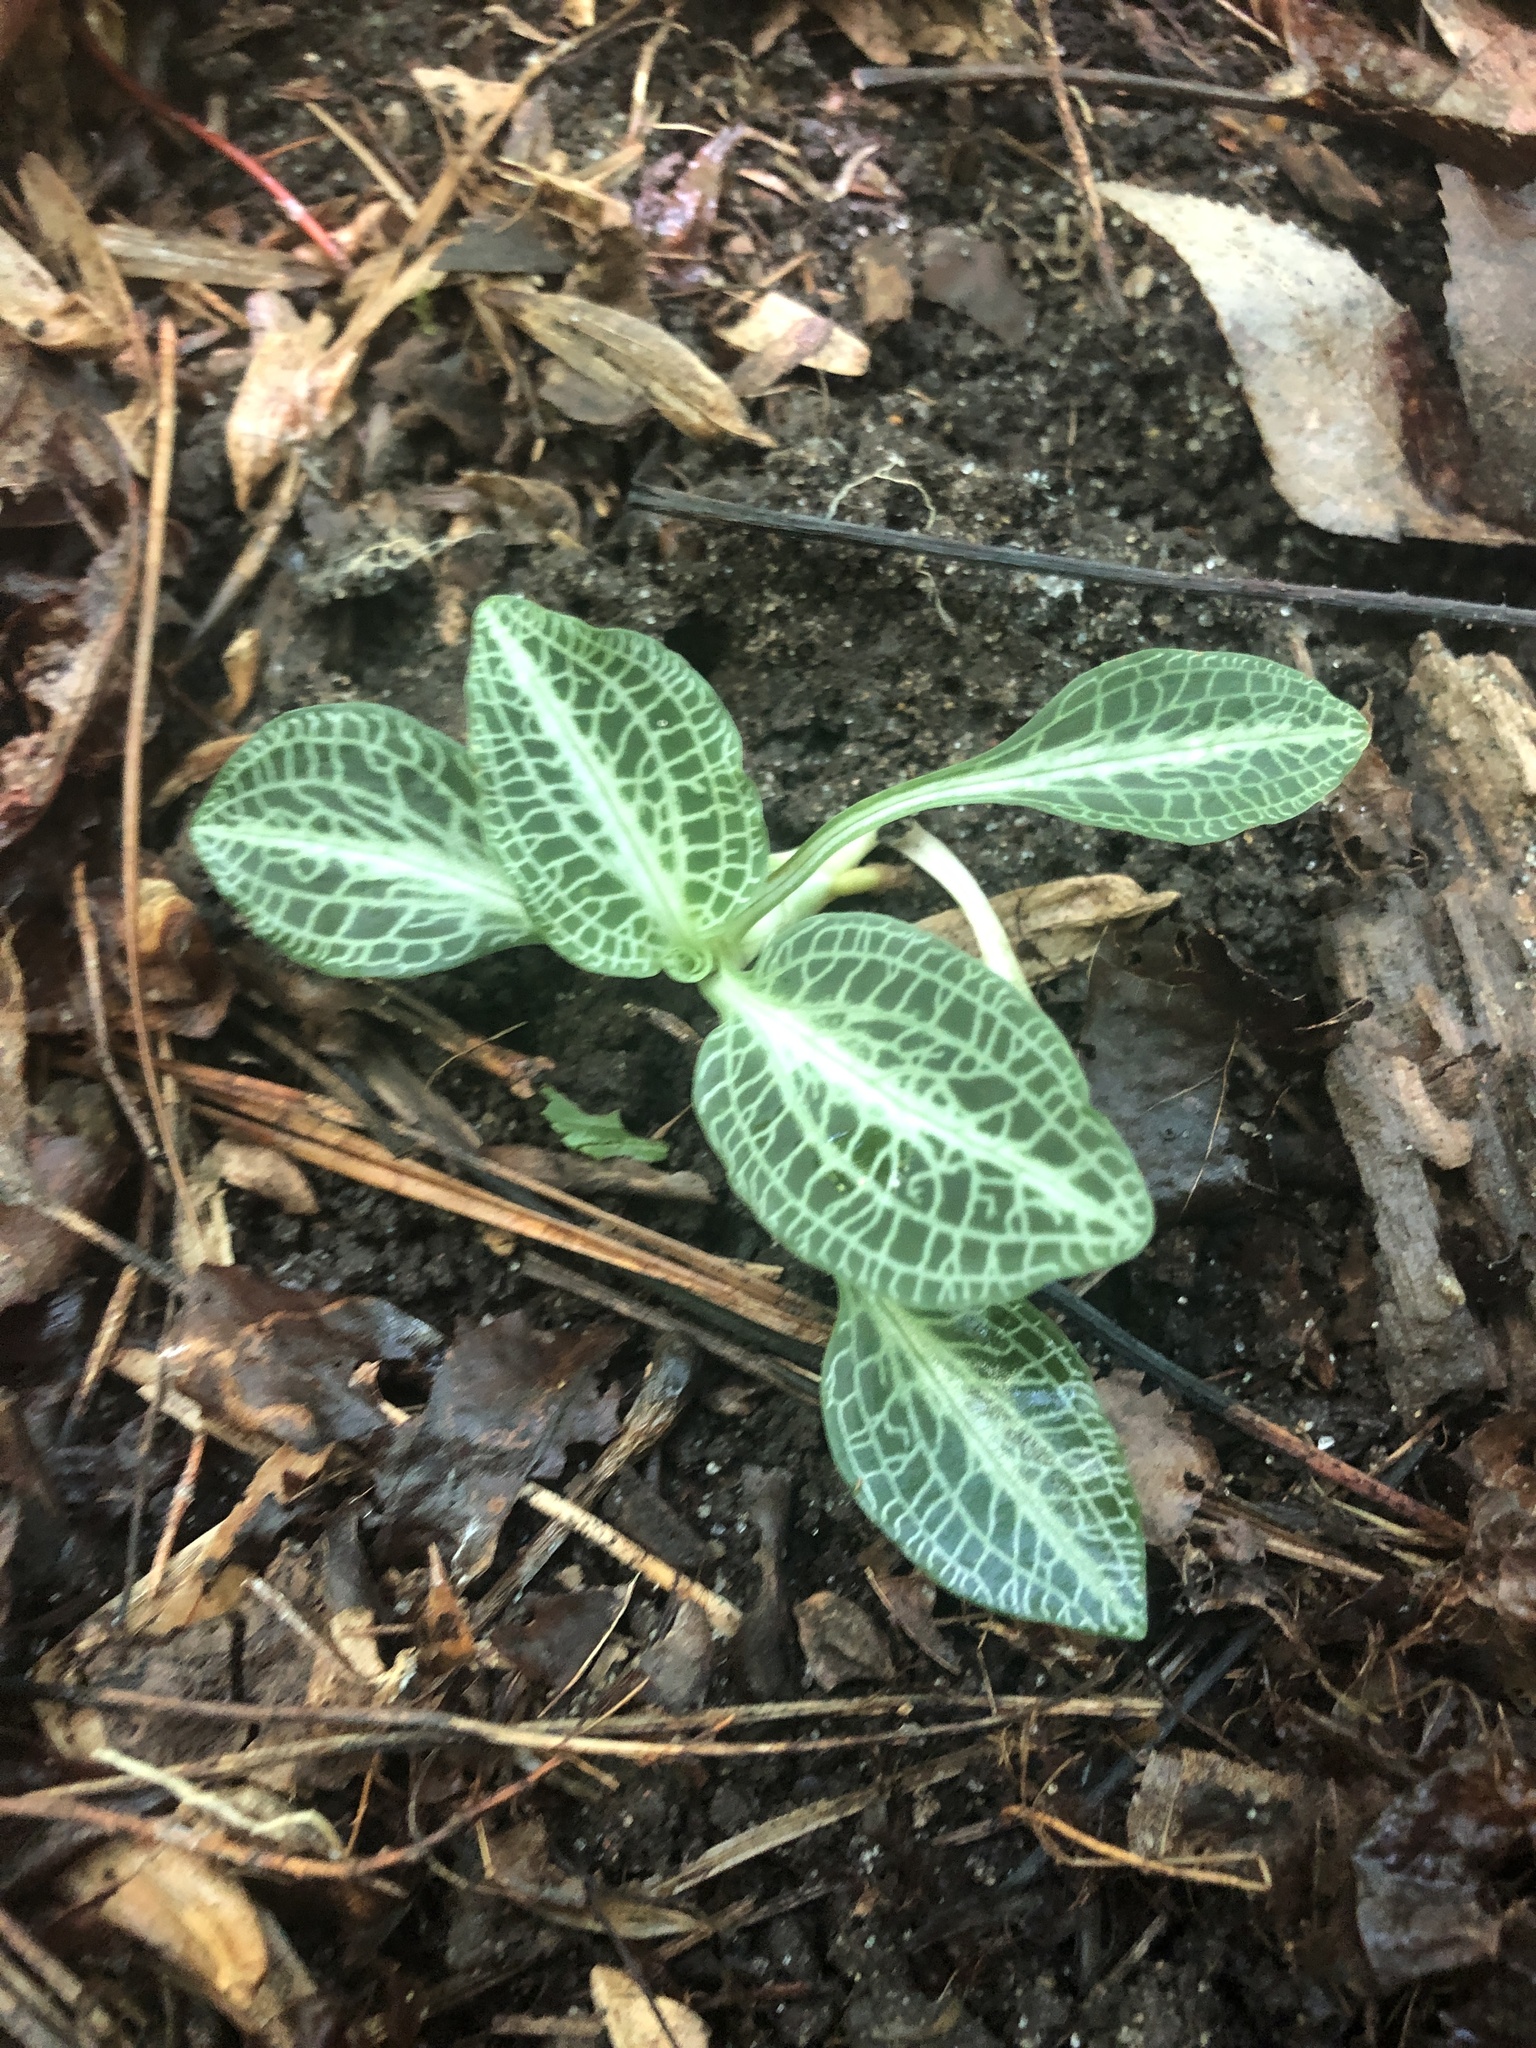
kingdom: Plantae
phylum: Tracheophyta
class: Liliopsida
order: Asparagales
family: Orchidaceae
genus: Goodyera
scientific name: Goodyera pubescens
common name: Downy rattlesnake-plantain
